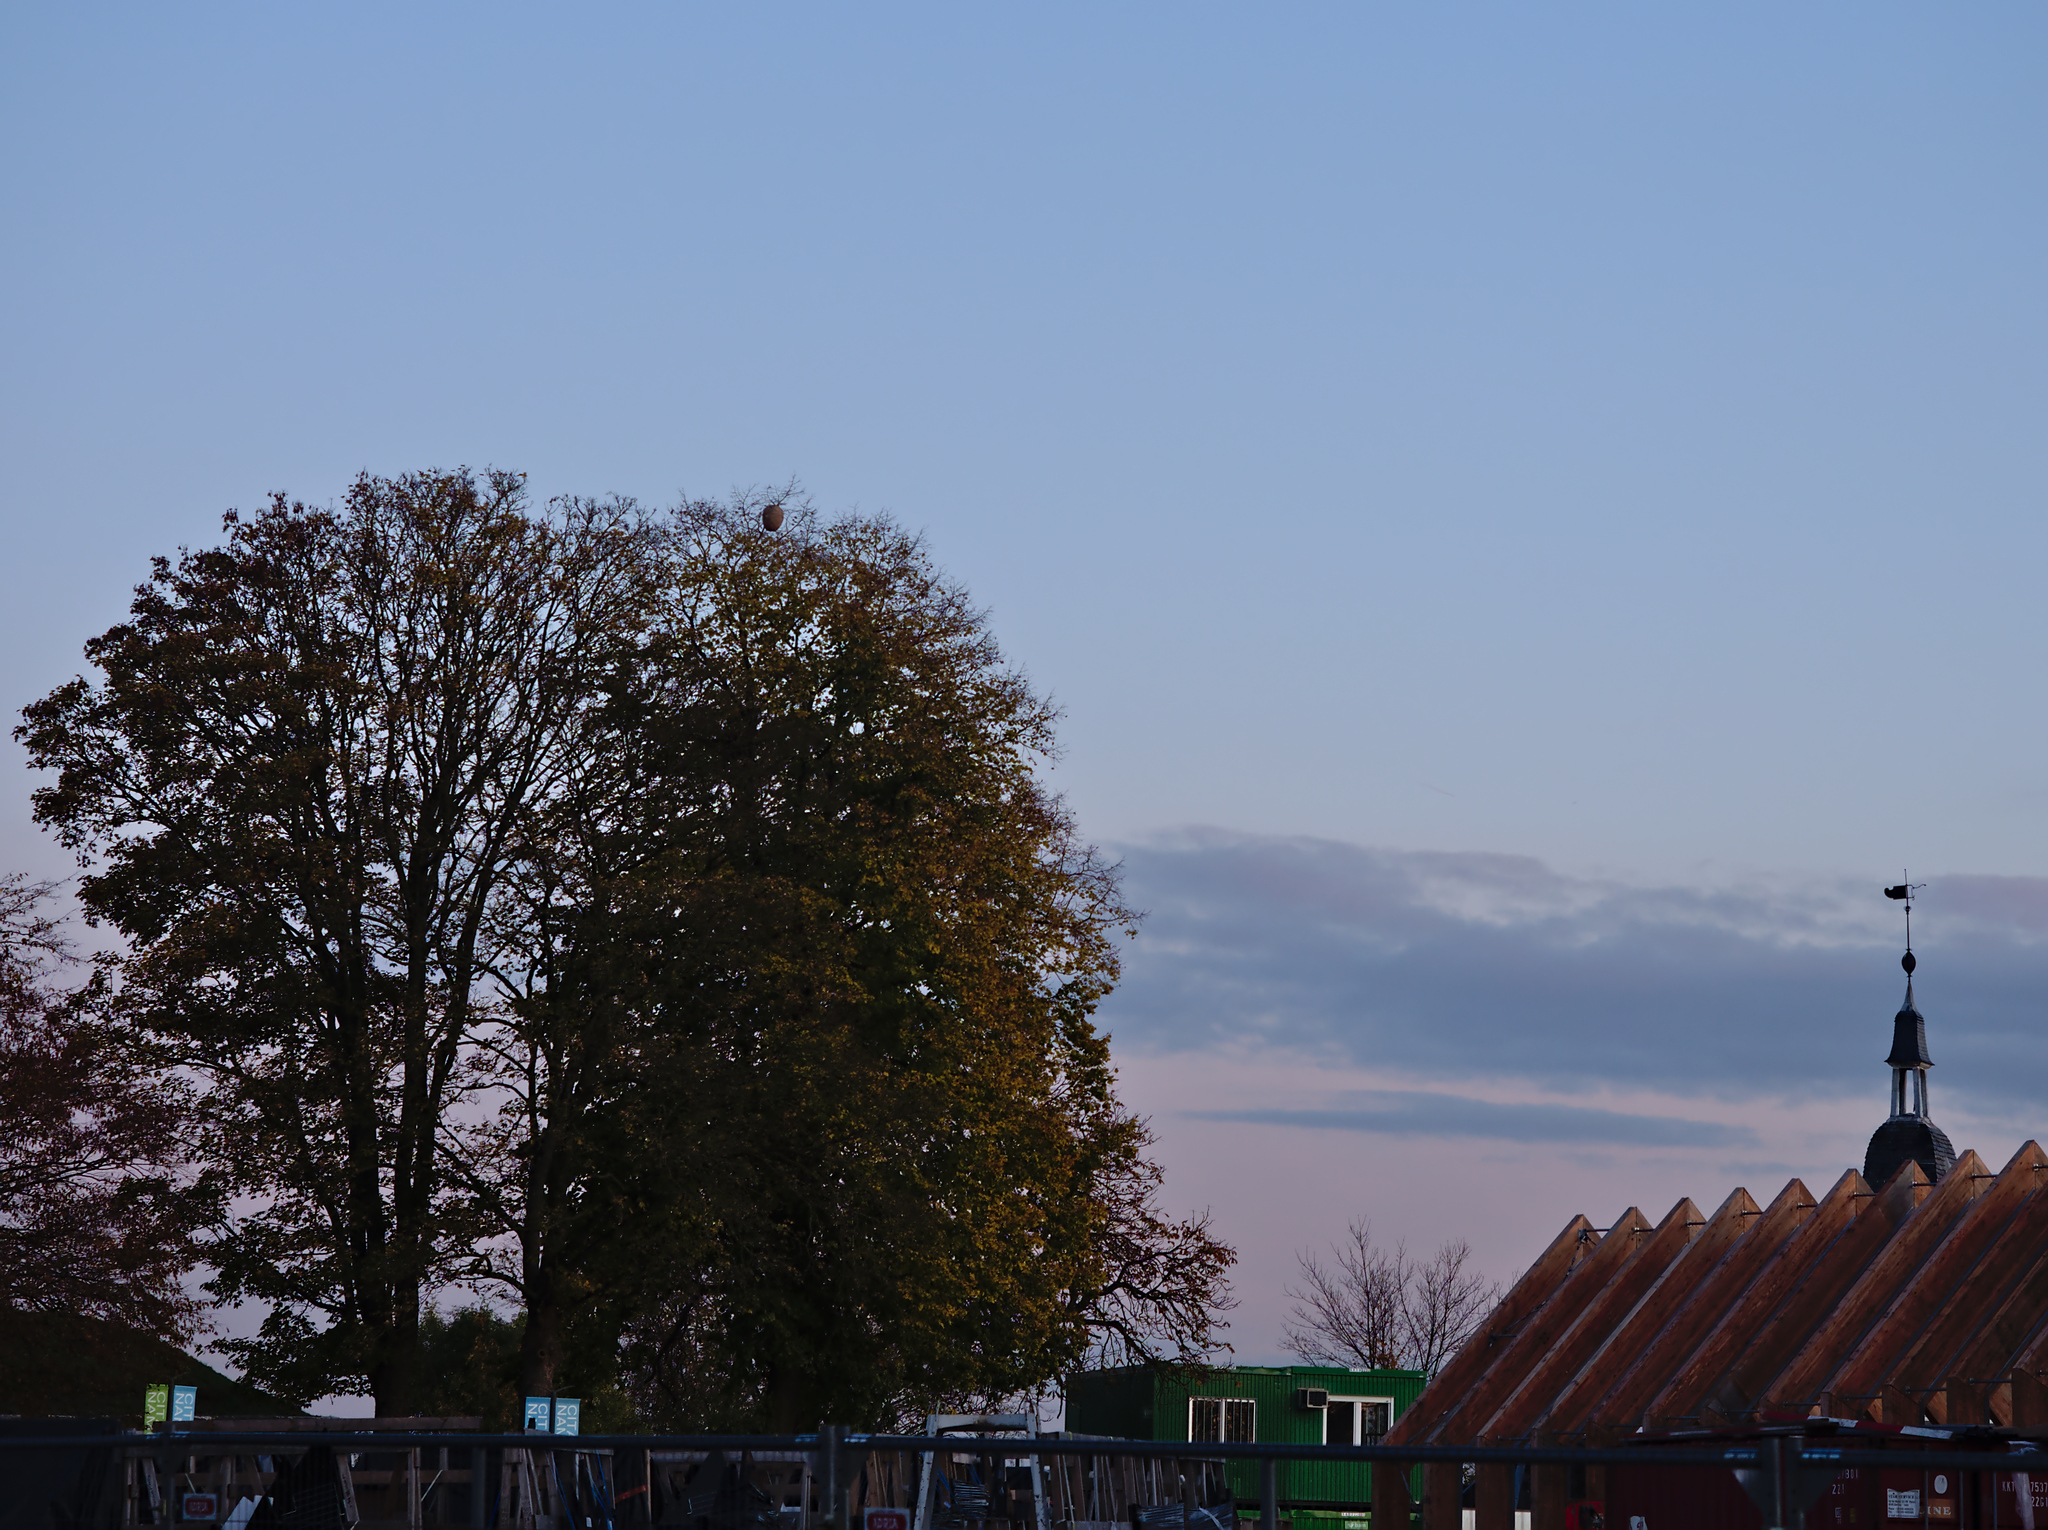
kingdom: Animalia
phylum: Arthropoda
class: Insecta
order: Hymenoptera
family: Vespidae
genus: Vespa
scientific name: Vespa velutina
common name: Asian hornet
